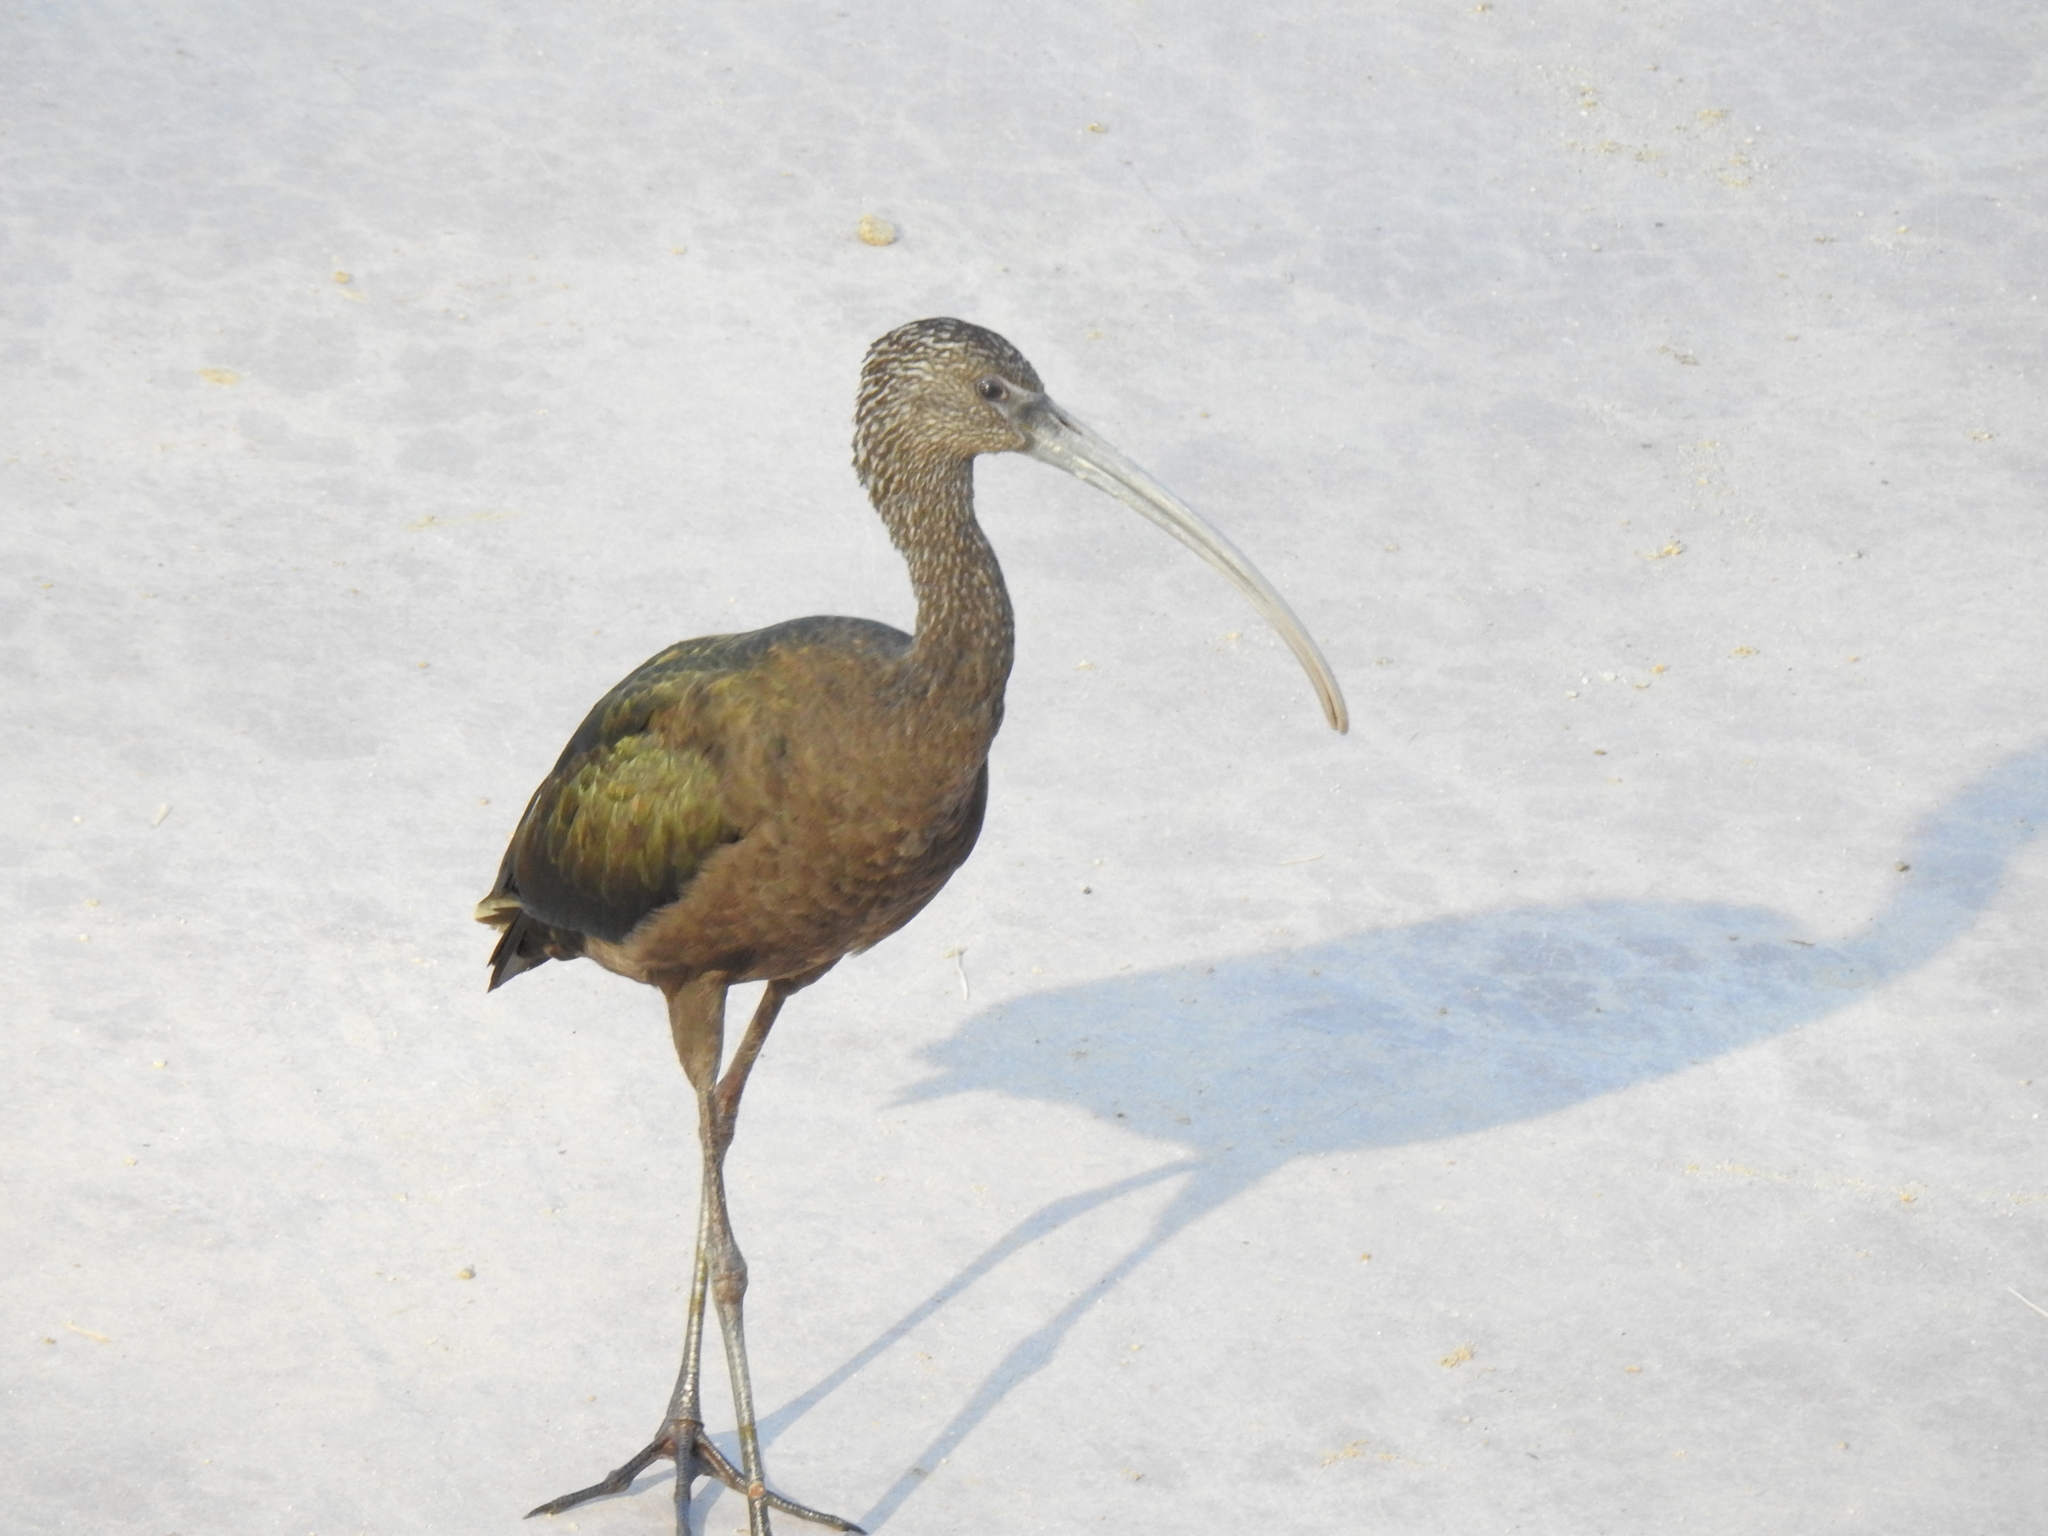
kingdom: Animalia
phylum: Chordata
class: Aves
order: Pelecaniformes
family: Threskiornithidae
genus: Plegadis
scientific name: Plegadis chihi
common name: White-faced ibis
